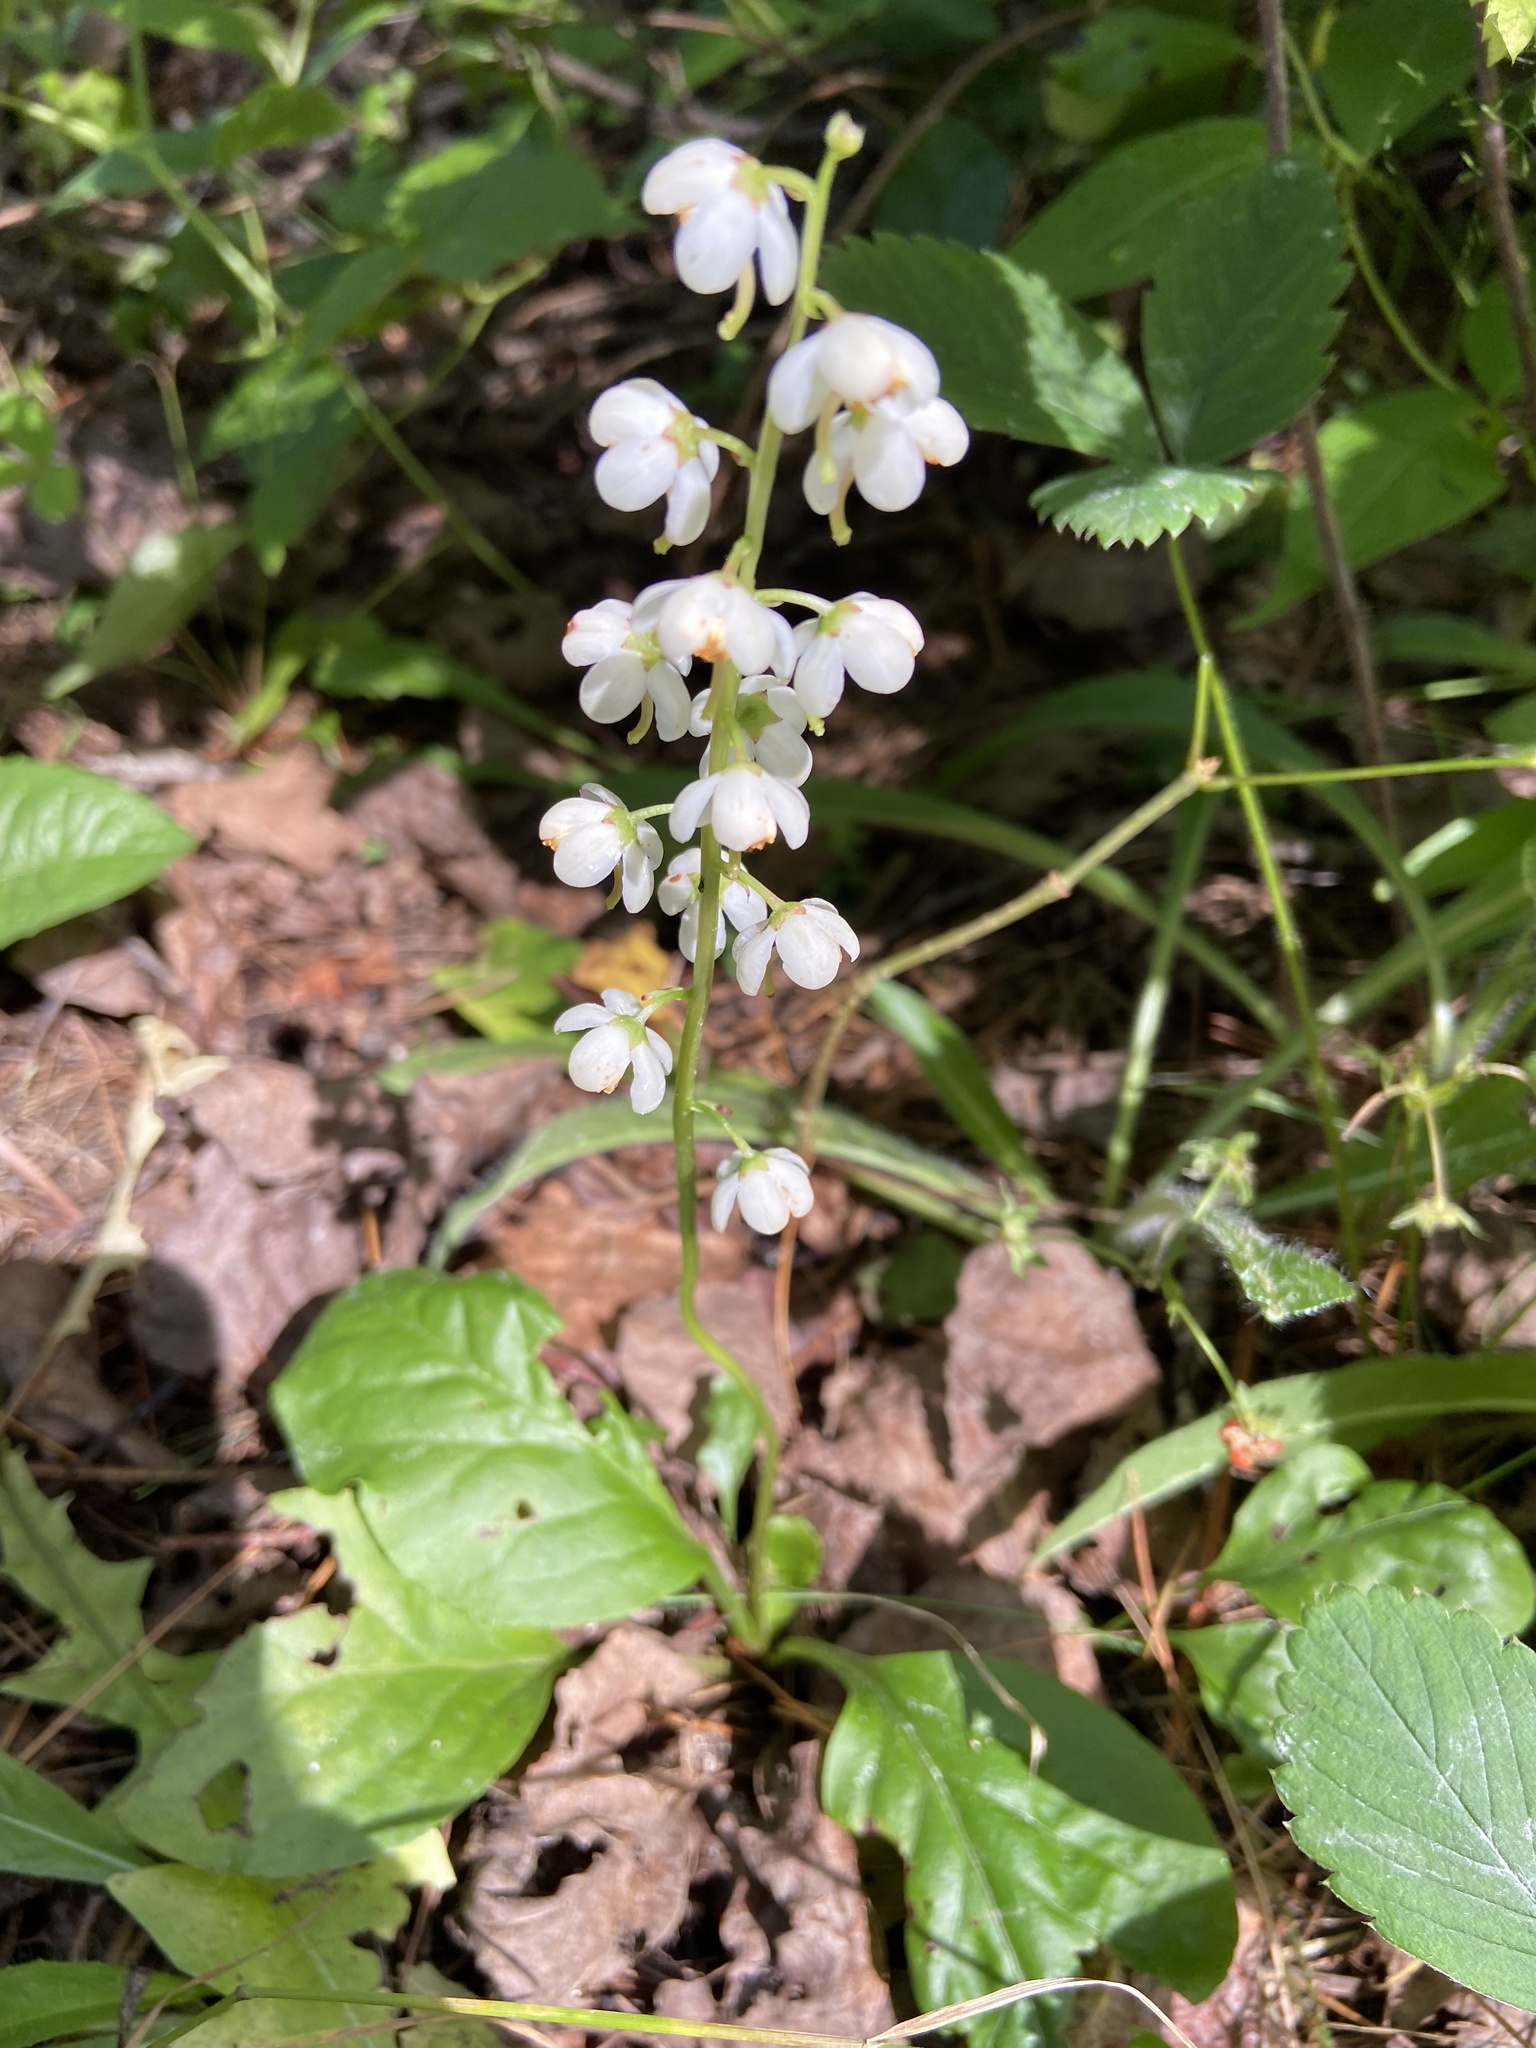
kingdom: Plantae
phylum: Tracheophyta
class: Magnoliopsida
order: Ericales
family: Ericaceae
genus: Pyrola
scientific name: Pyrola elliptica
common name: Shinleaf
